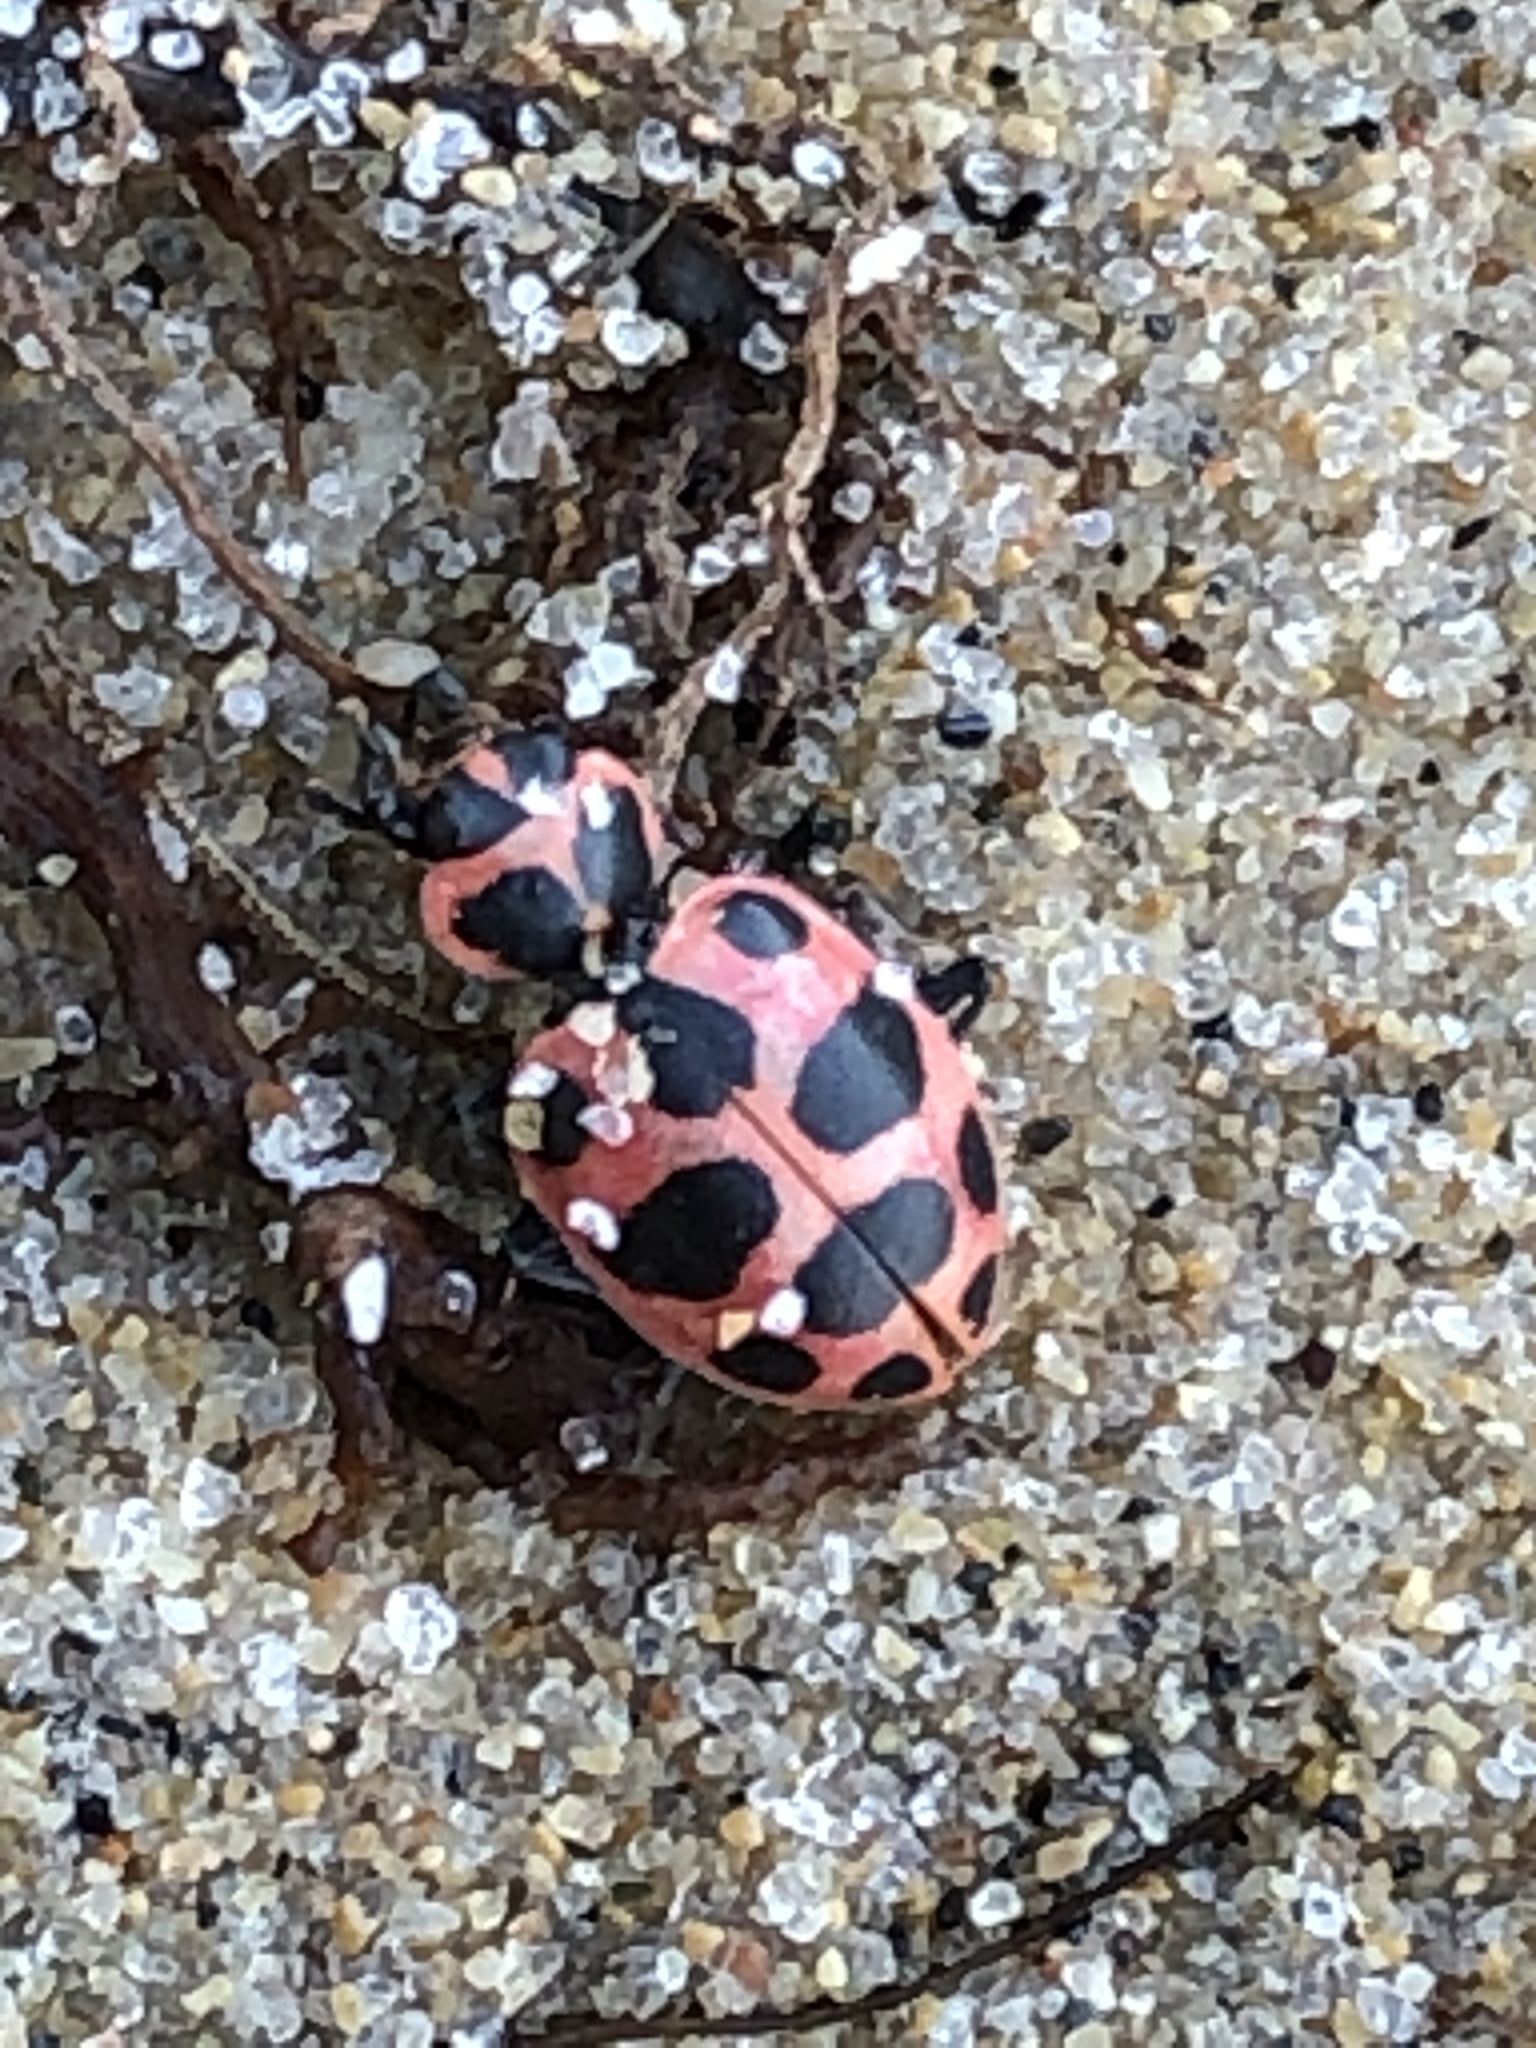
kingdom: Animalia
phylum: Arthropoda
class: Insecta
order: Coleoptera
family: Coccinellidae
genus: Coleomegilla
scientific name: Coleomegilla maculata
